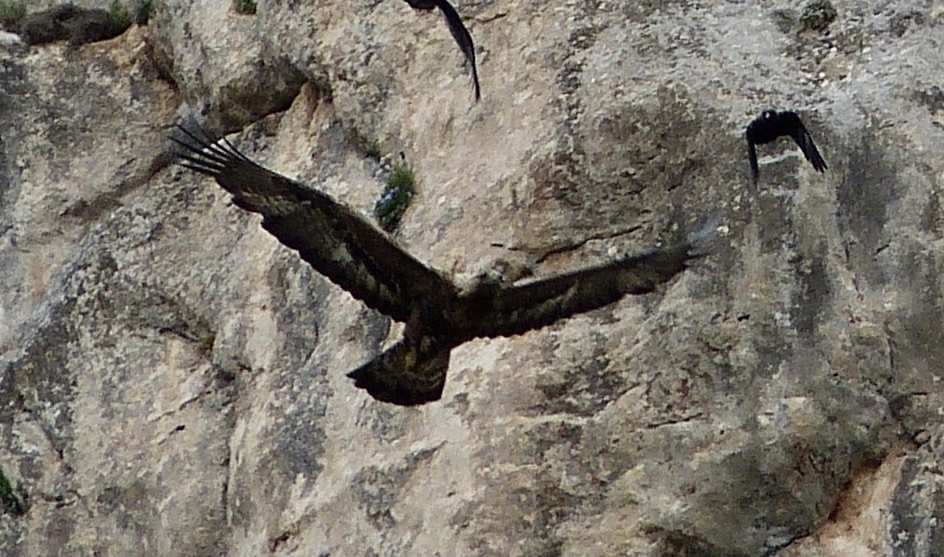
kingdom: Animalia
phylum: Chordata
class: Aves
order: Accipitriformes
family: Accipitridae
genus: Aquila
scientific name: Aquila chrysaetos
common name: Golden eagle
